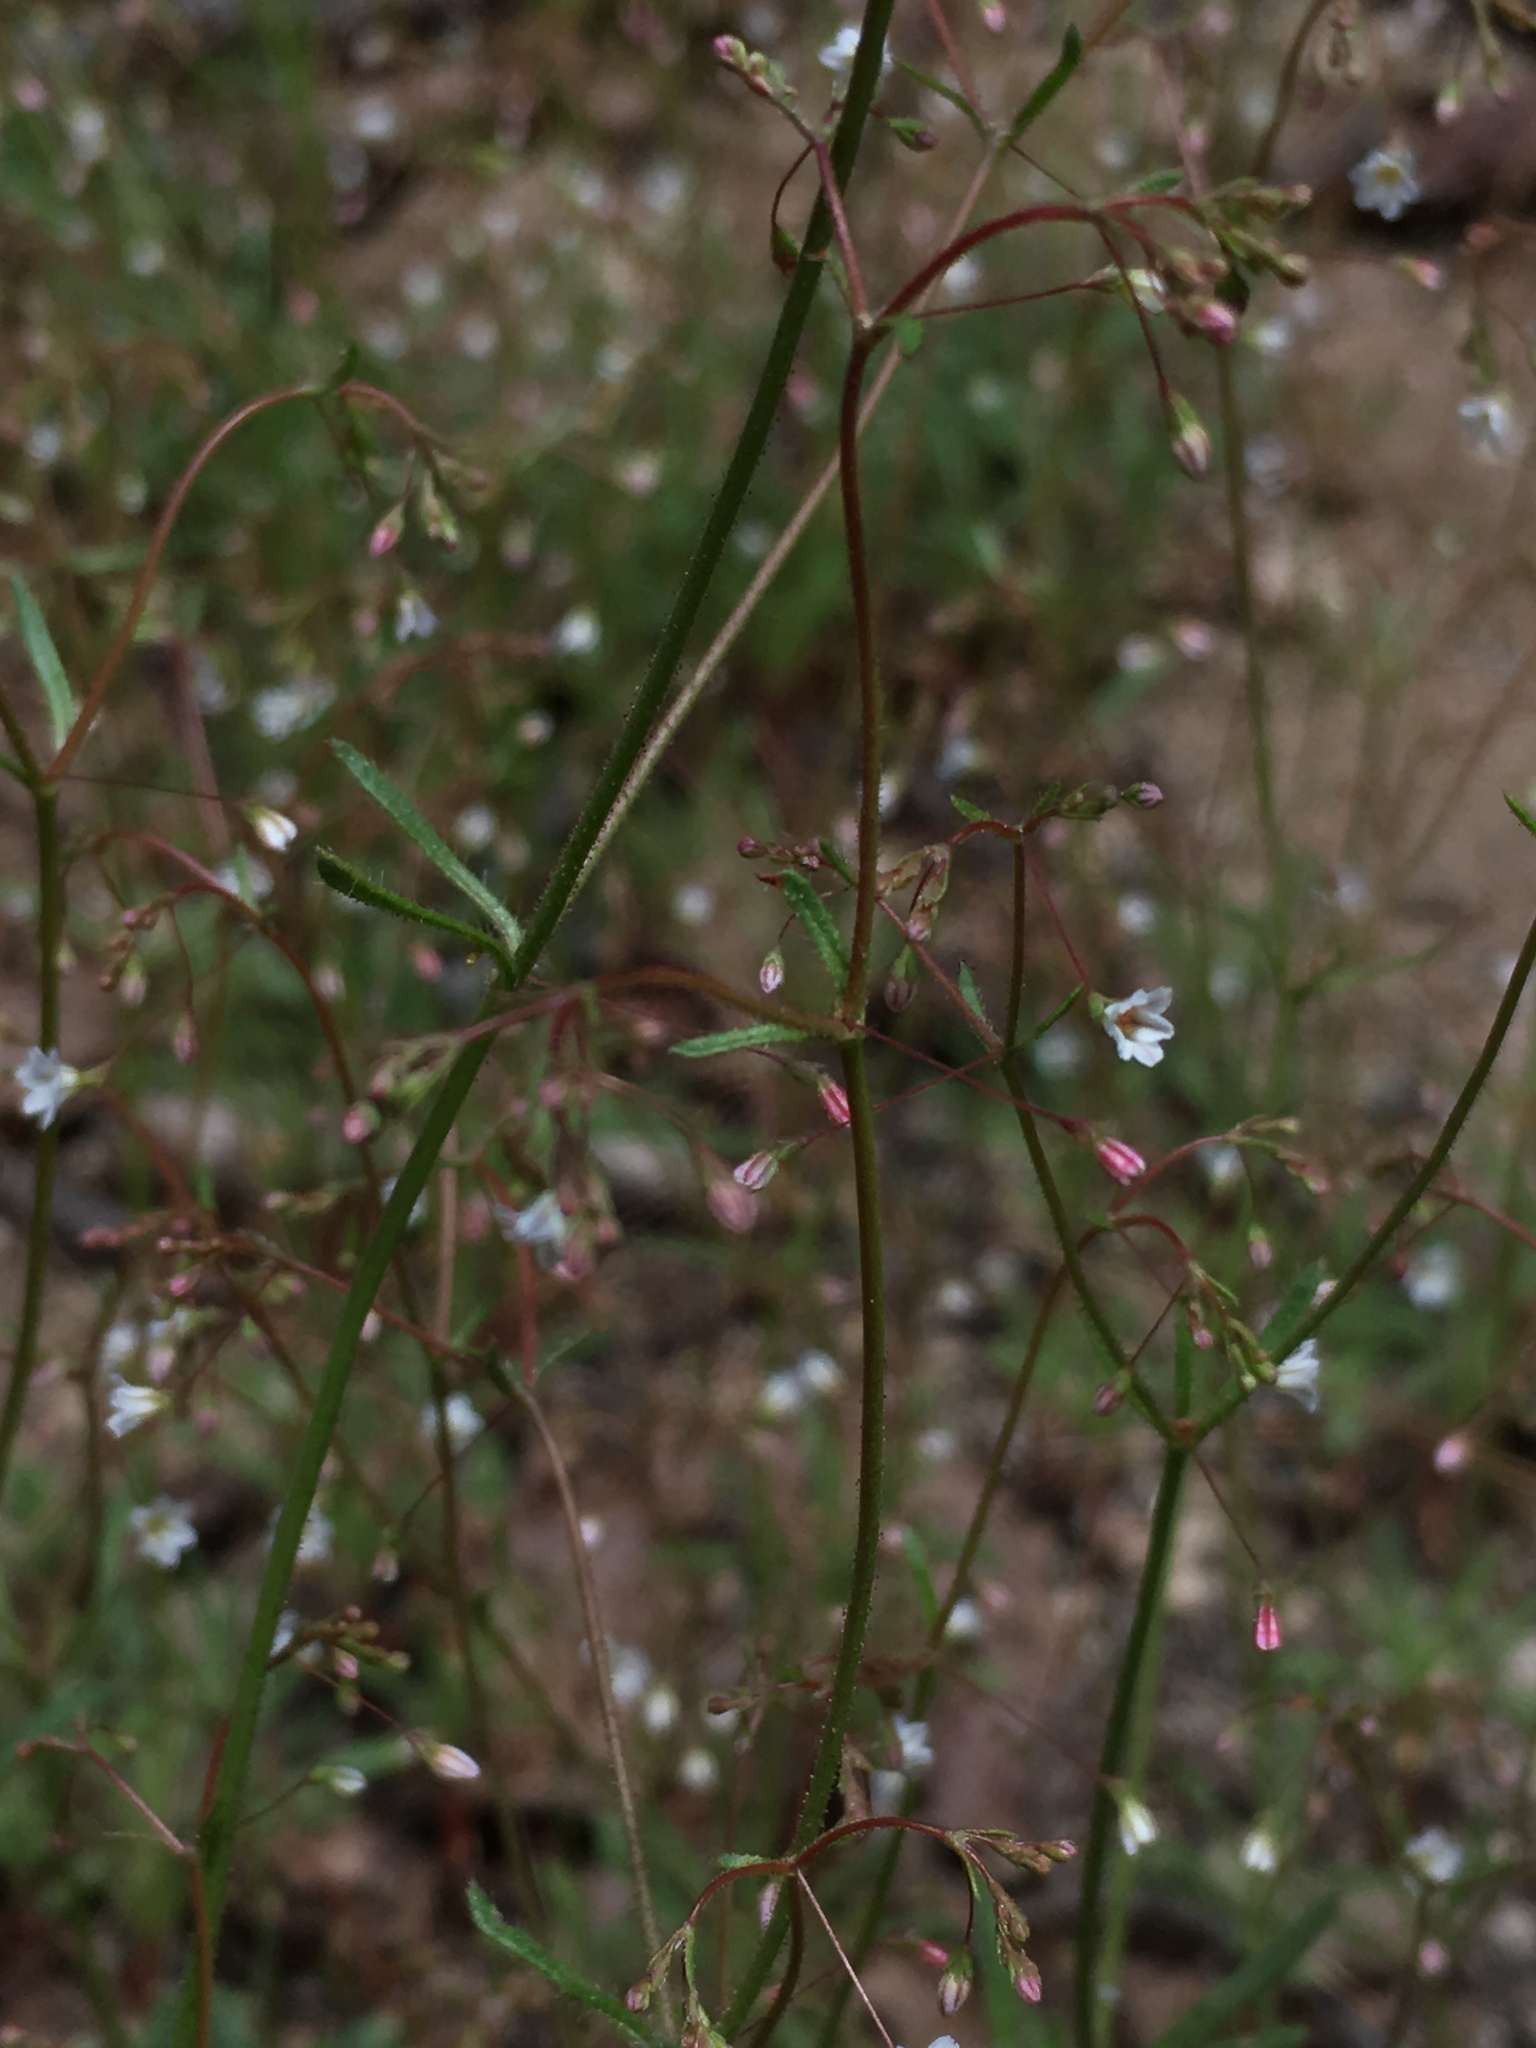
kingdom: Plantae
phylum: Tracheophyta
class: Magnoliopsida
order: Caryophyllales
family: Polygonaceae
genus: Eriogonum
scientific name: Eriogonum spergulinum
